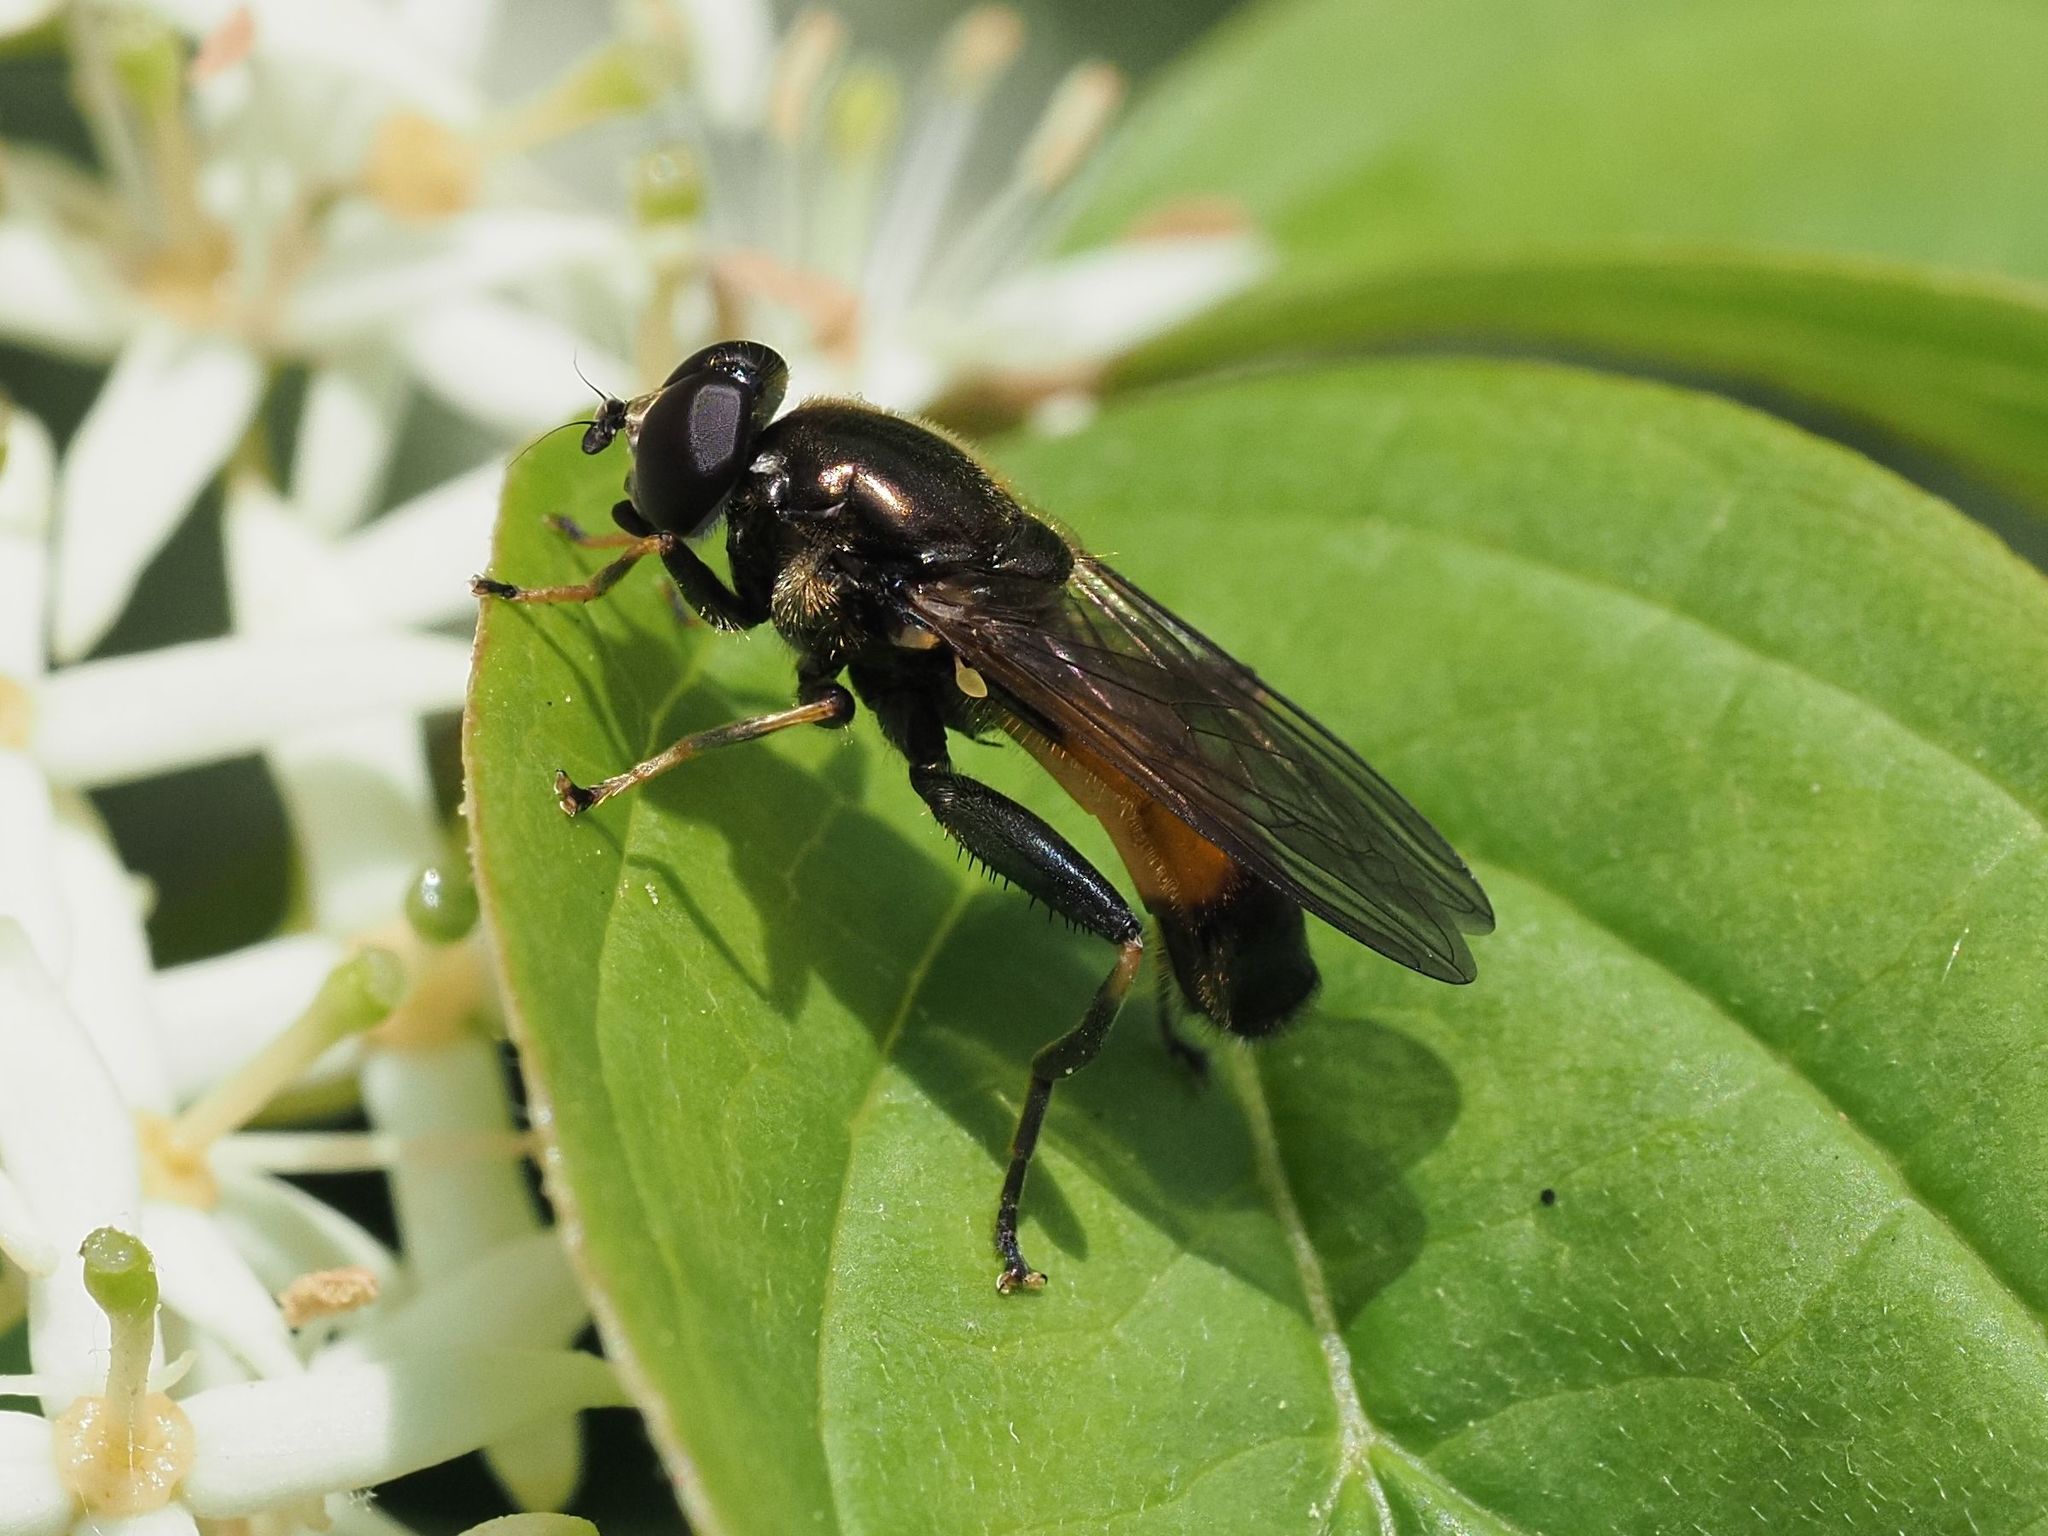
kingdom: Animalia
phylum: Arthropoda
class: Insecta
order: Diptera
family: Syrphidae
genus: Xylota
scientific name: Xylota segnis
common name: Brown-toed forest fly
